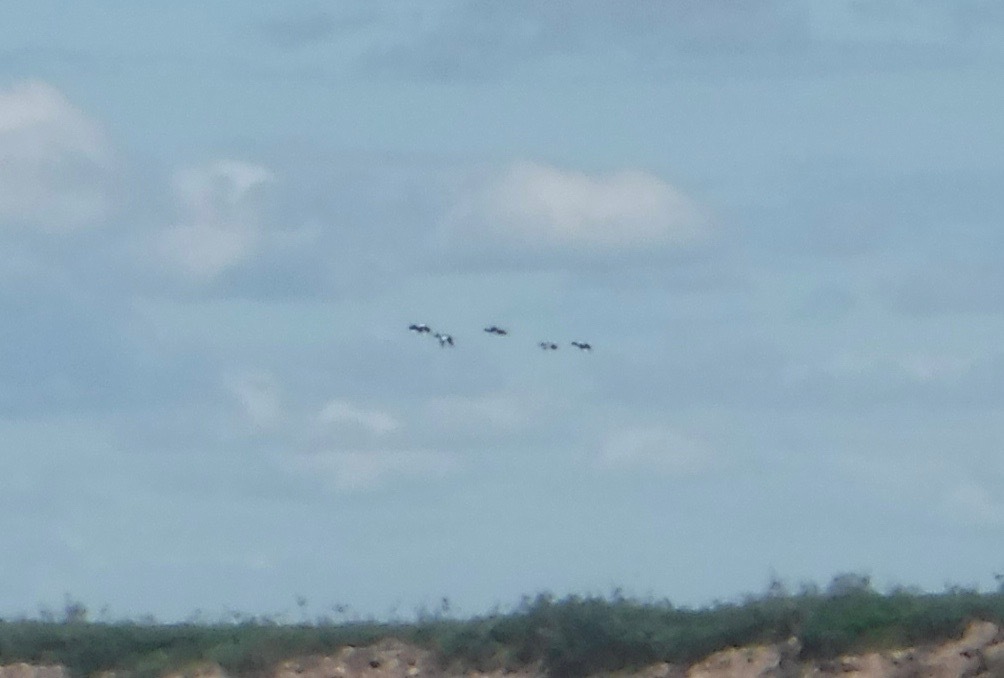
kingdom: Animalia
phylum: Chordata
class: Aves
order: Anseriformes
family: Anatidae
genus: Melanitta
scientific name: Melanitta deglandi
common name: White-winged scoter
